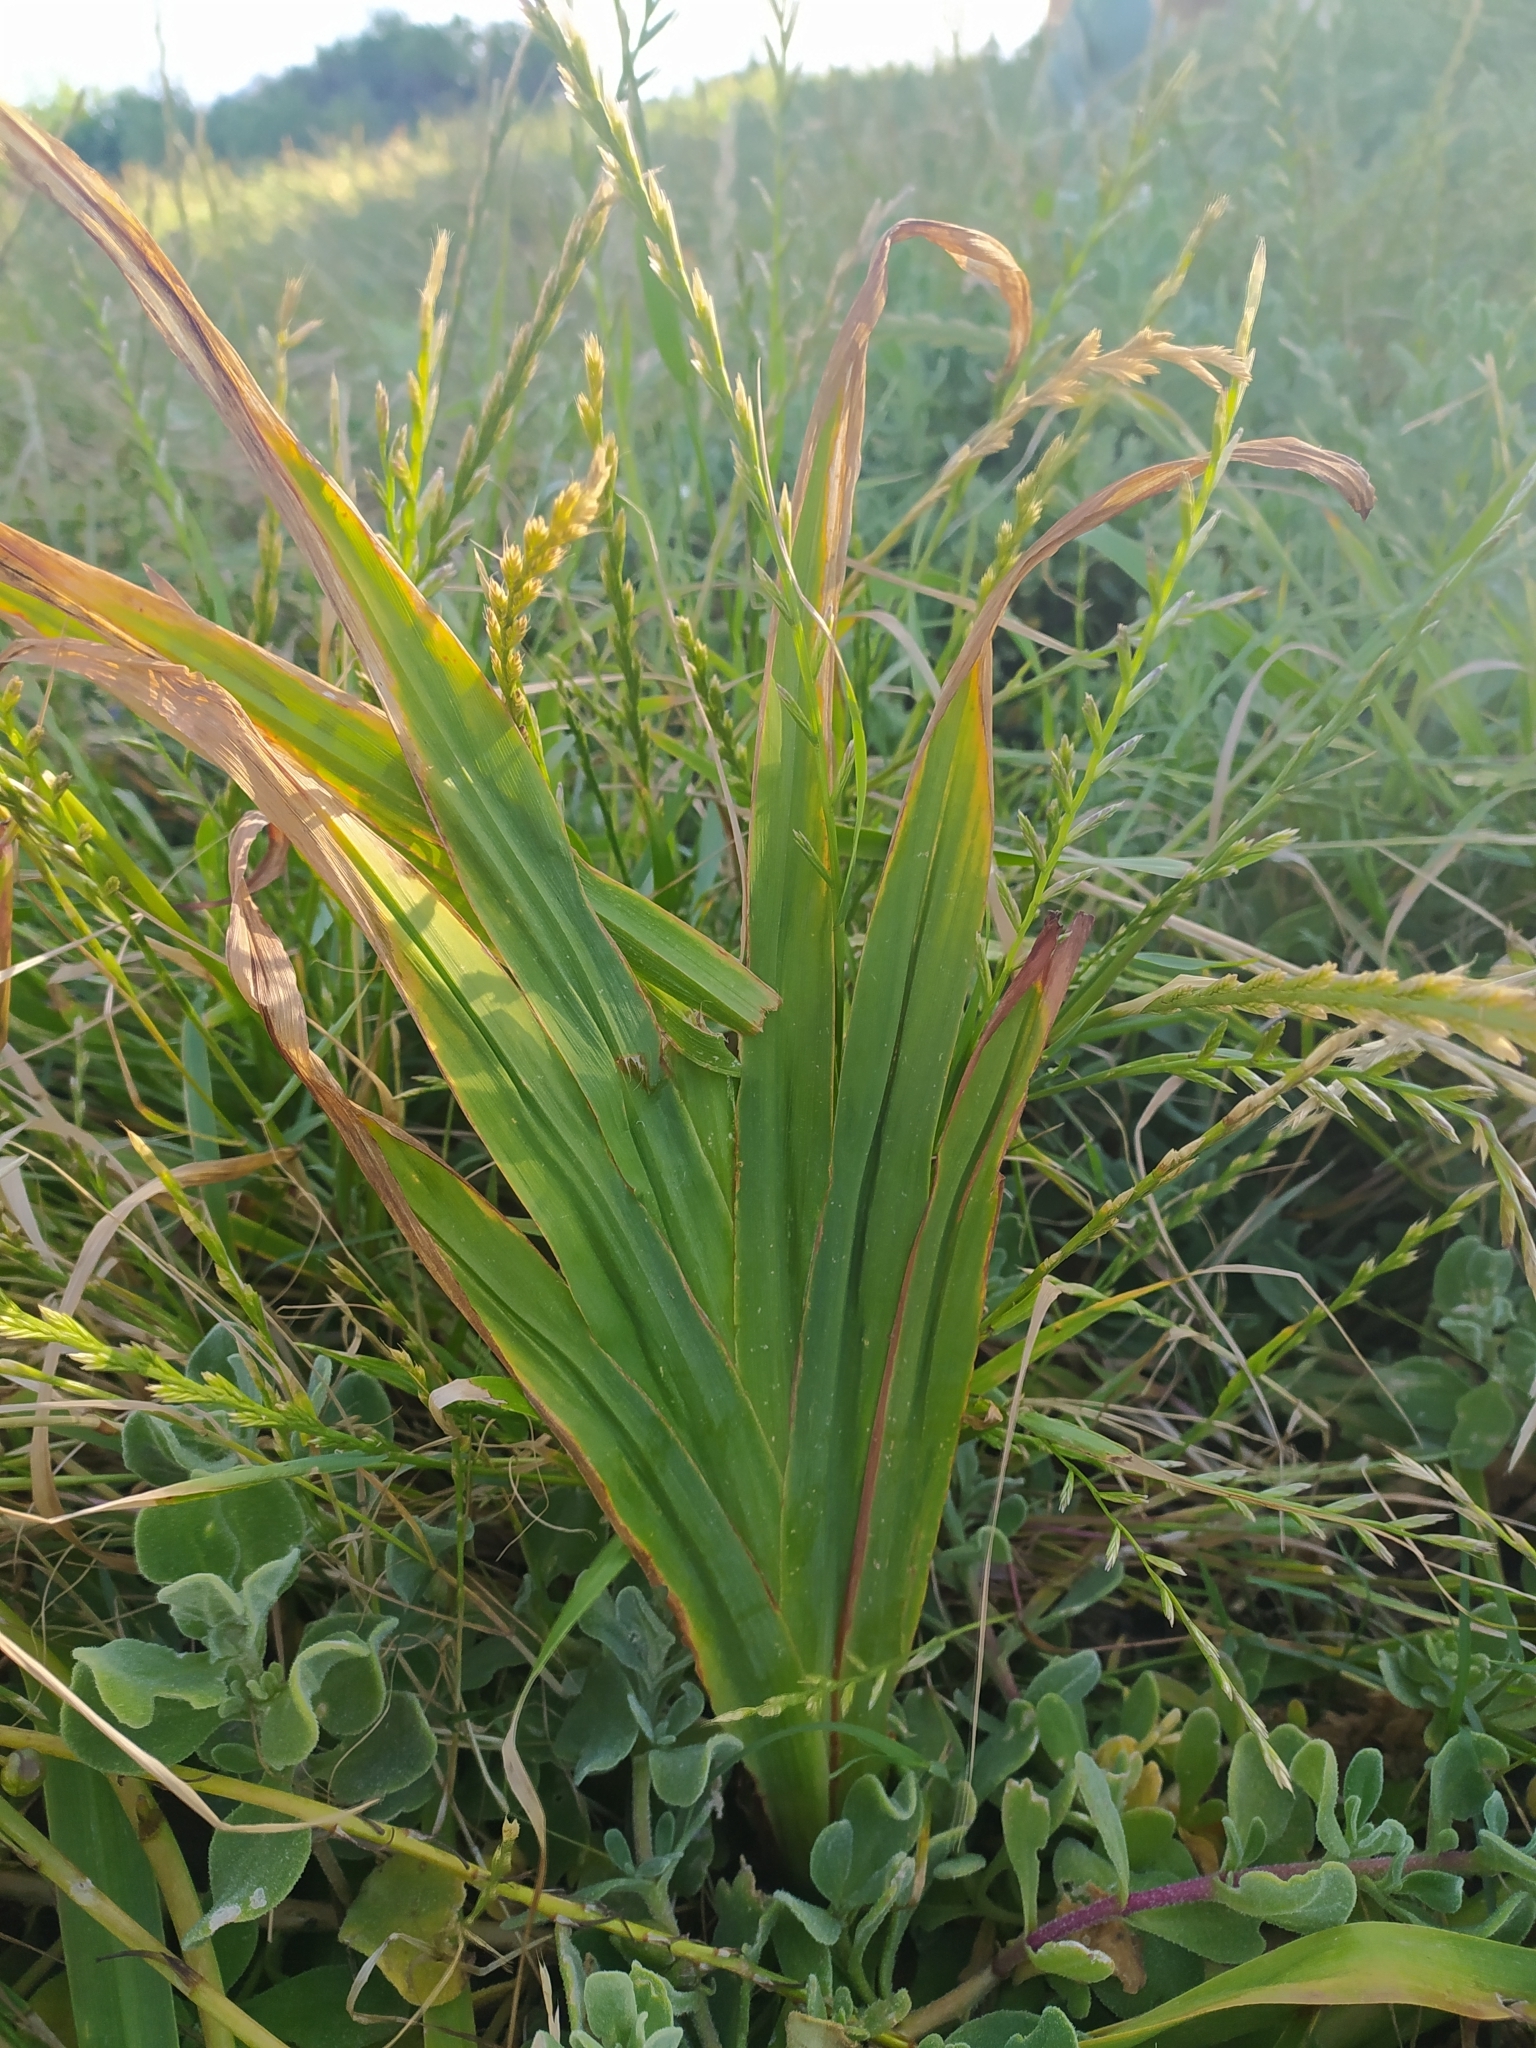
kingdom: Plantae
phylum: Tracheophyta
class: Liliopsida
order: Asparagales
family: Iridaceae
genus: Chasmanthe
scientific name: Chasmanthe aethiopica
